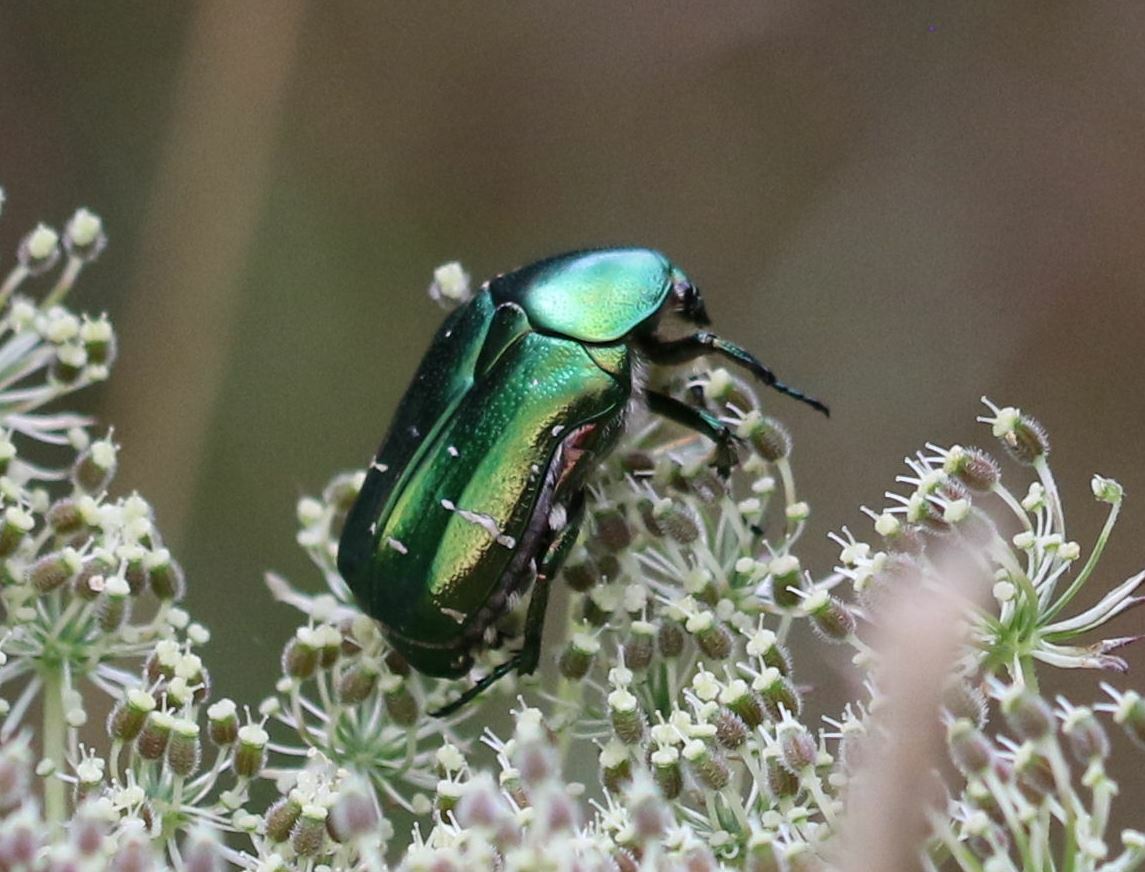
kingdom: Animalia
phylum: Arthropoda
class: Insecta
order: Coleoptera
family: Scarabaeidae
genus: Cetonia
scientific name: Cetonia aurata
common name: Rose chafer
